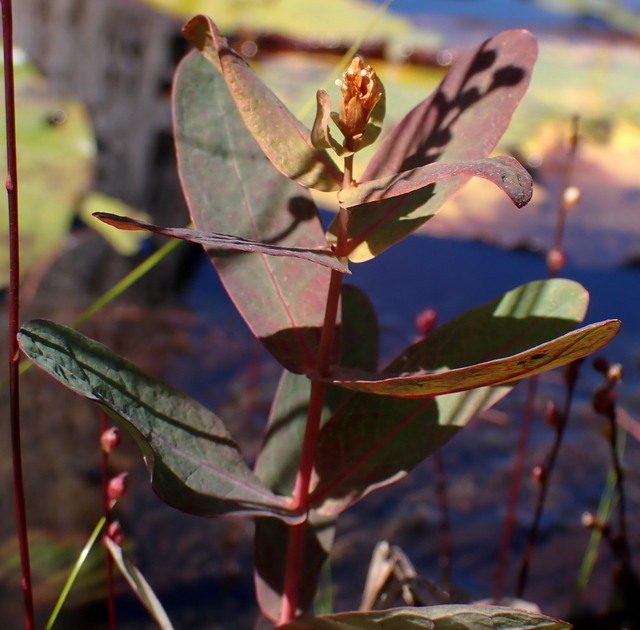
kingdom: Plantae
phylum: Tracheophyta
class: Magnoliopsida
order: Malpighiales
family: Hypericaceae
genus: Triadenum
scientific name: Triadenum virginicum
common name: Marsh st. john's-wort
